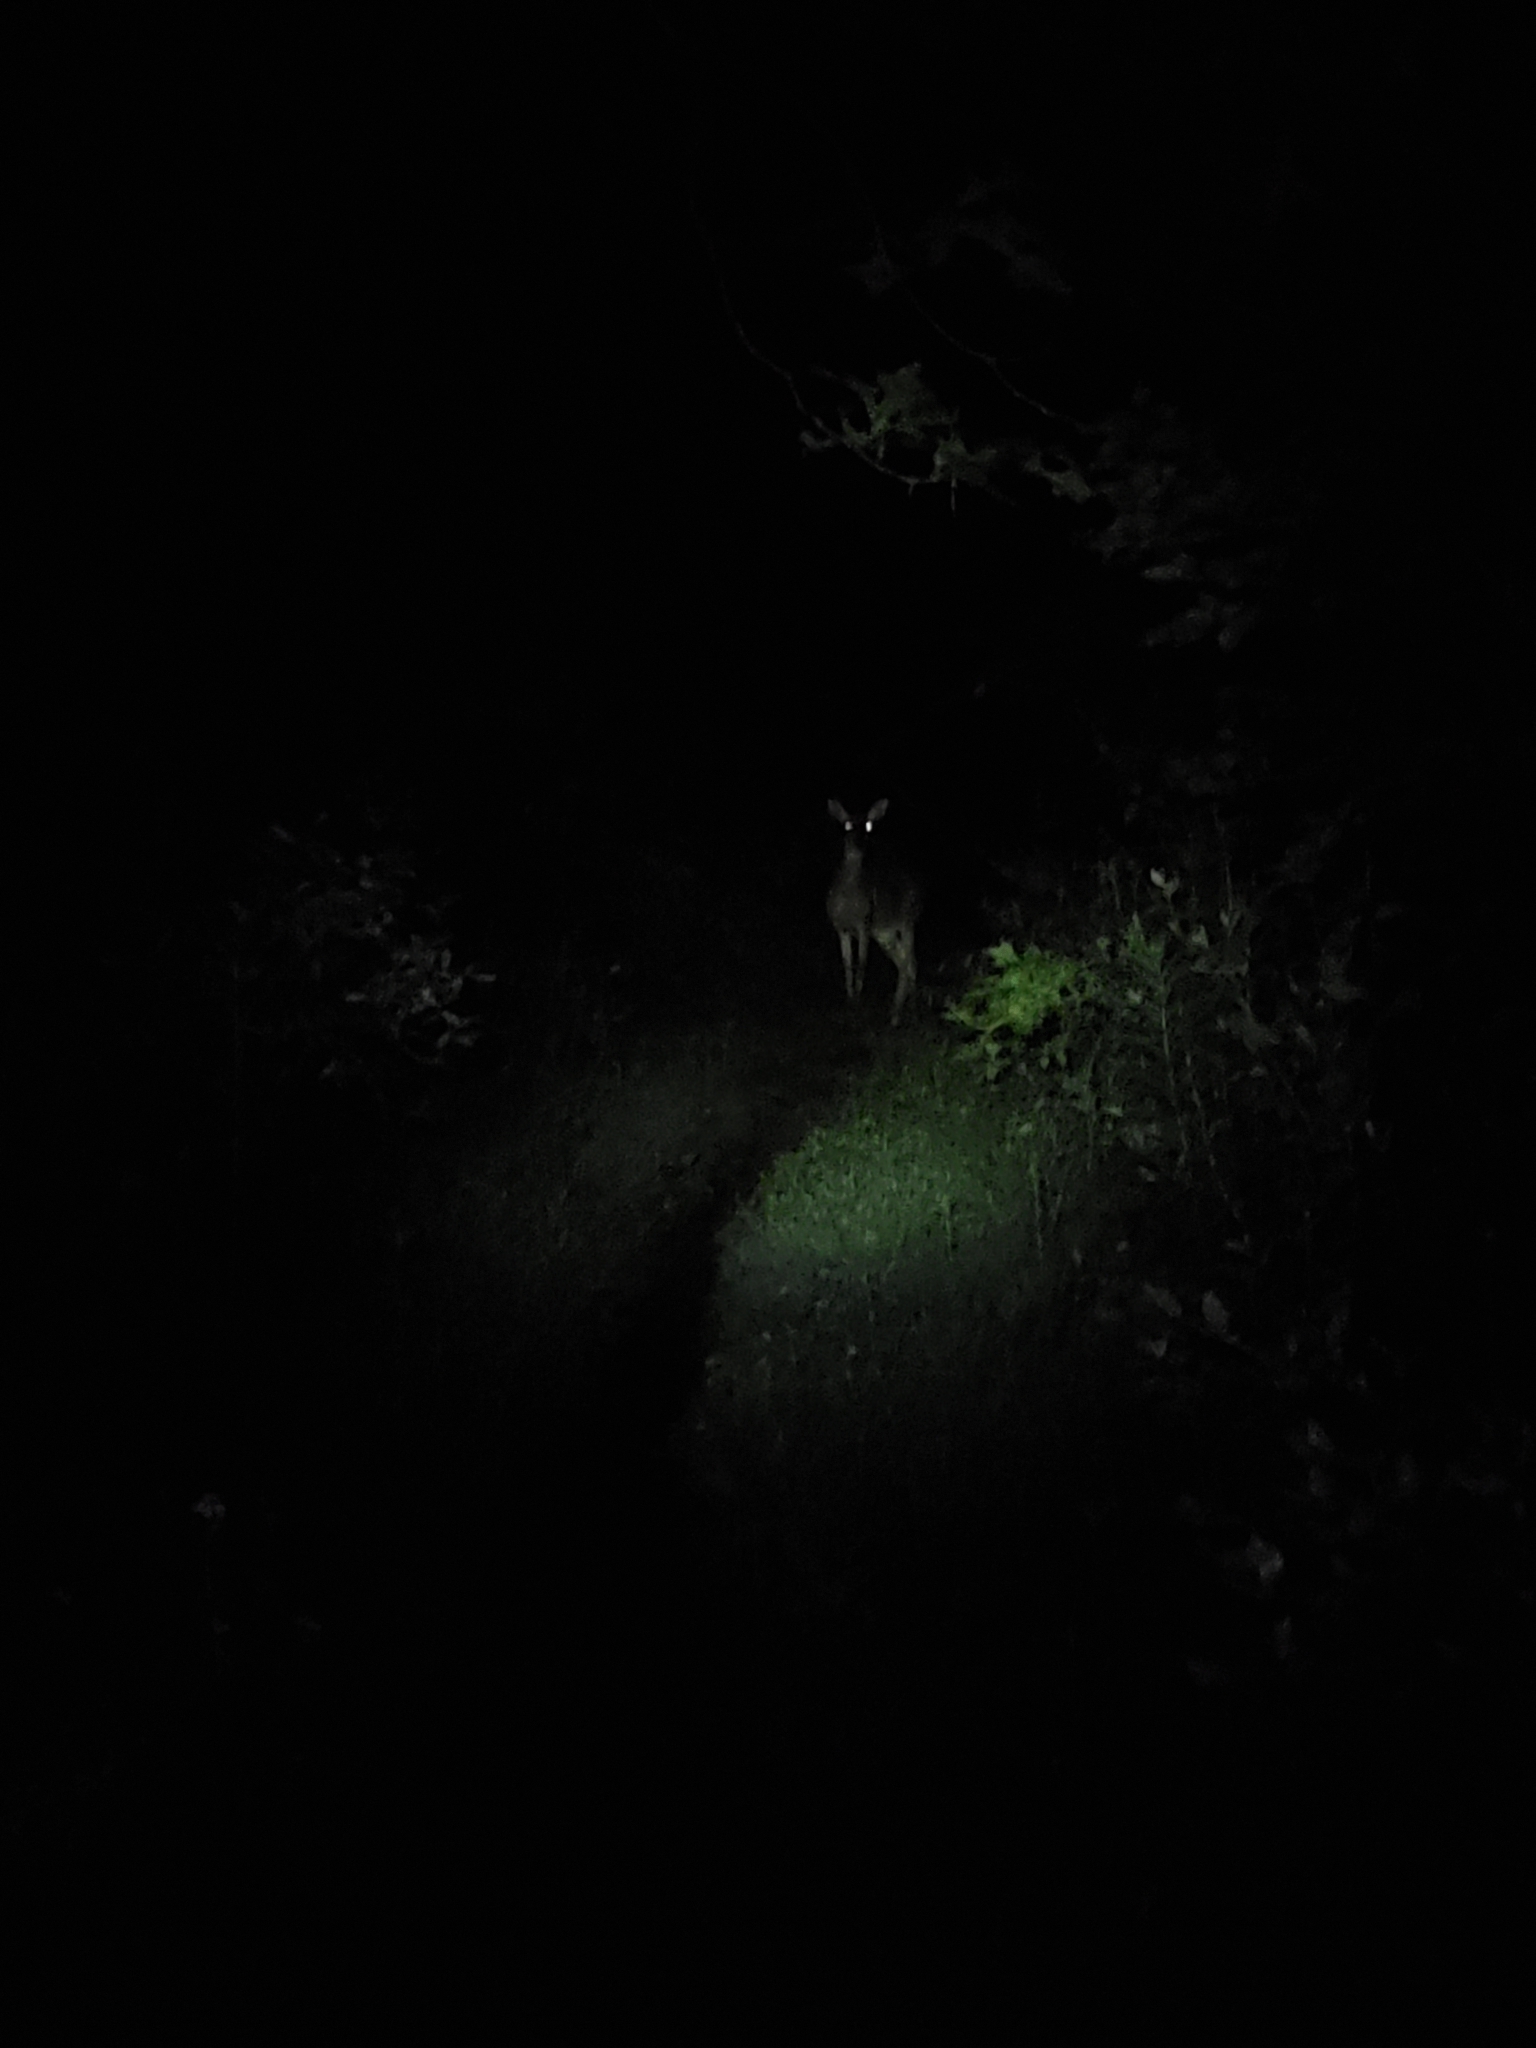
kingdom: Animalia
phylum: Chordata
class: Mammalia
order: Artiodactyla
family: Cervidae
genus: Odocoileus
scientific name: Odocoileus virginianus
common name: White-tailed deer
